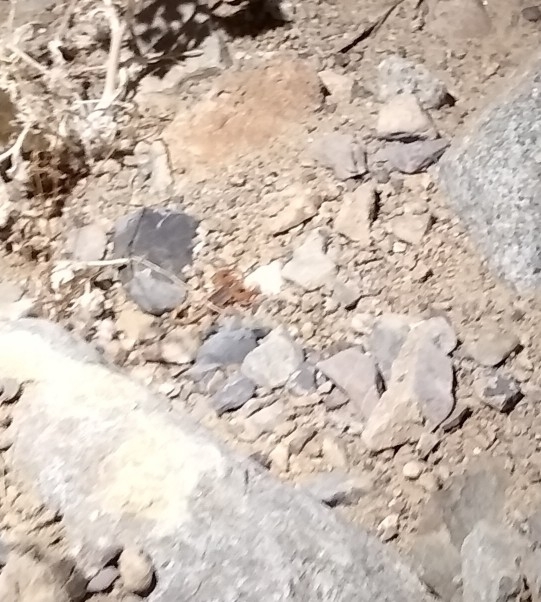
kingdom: Animalia
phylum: Arthropoda
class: Arachnida
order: Scorpiones
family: Vaejovidae
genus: Smeringurus
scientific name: Smeringurus vachoni
